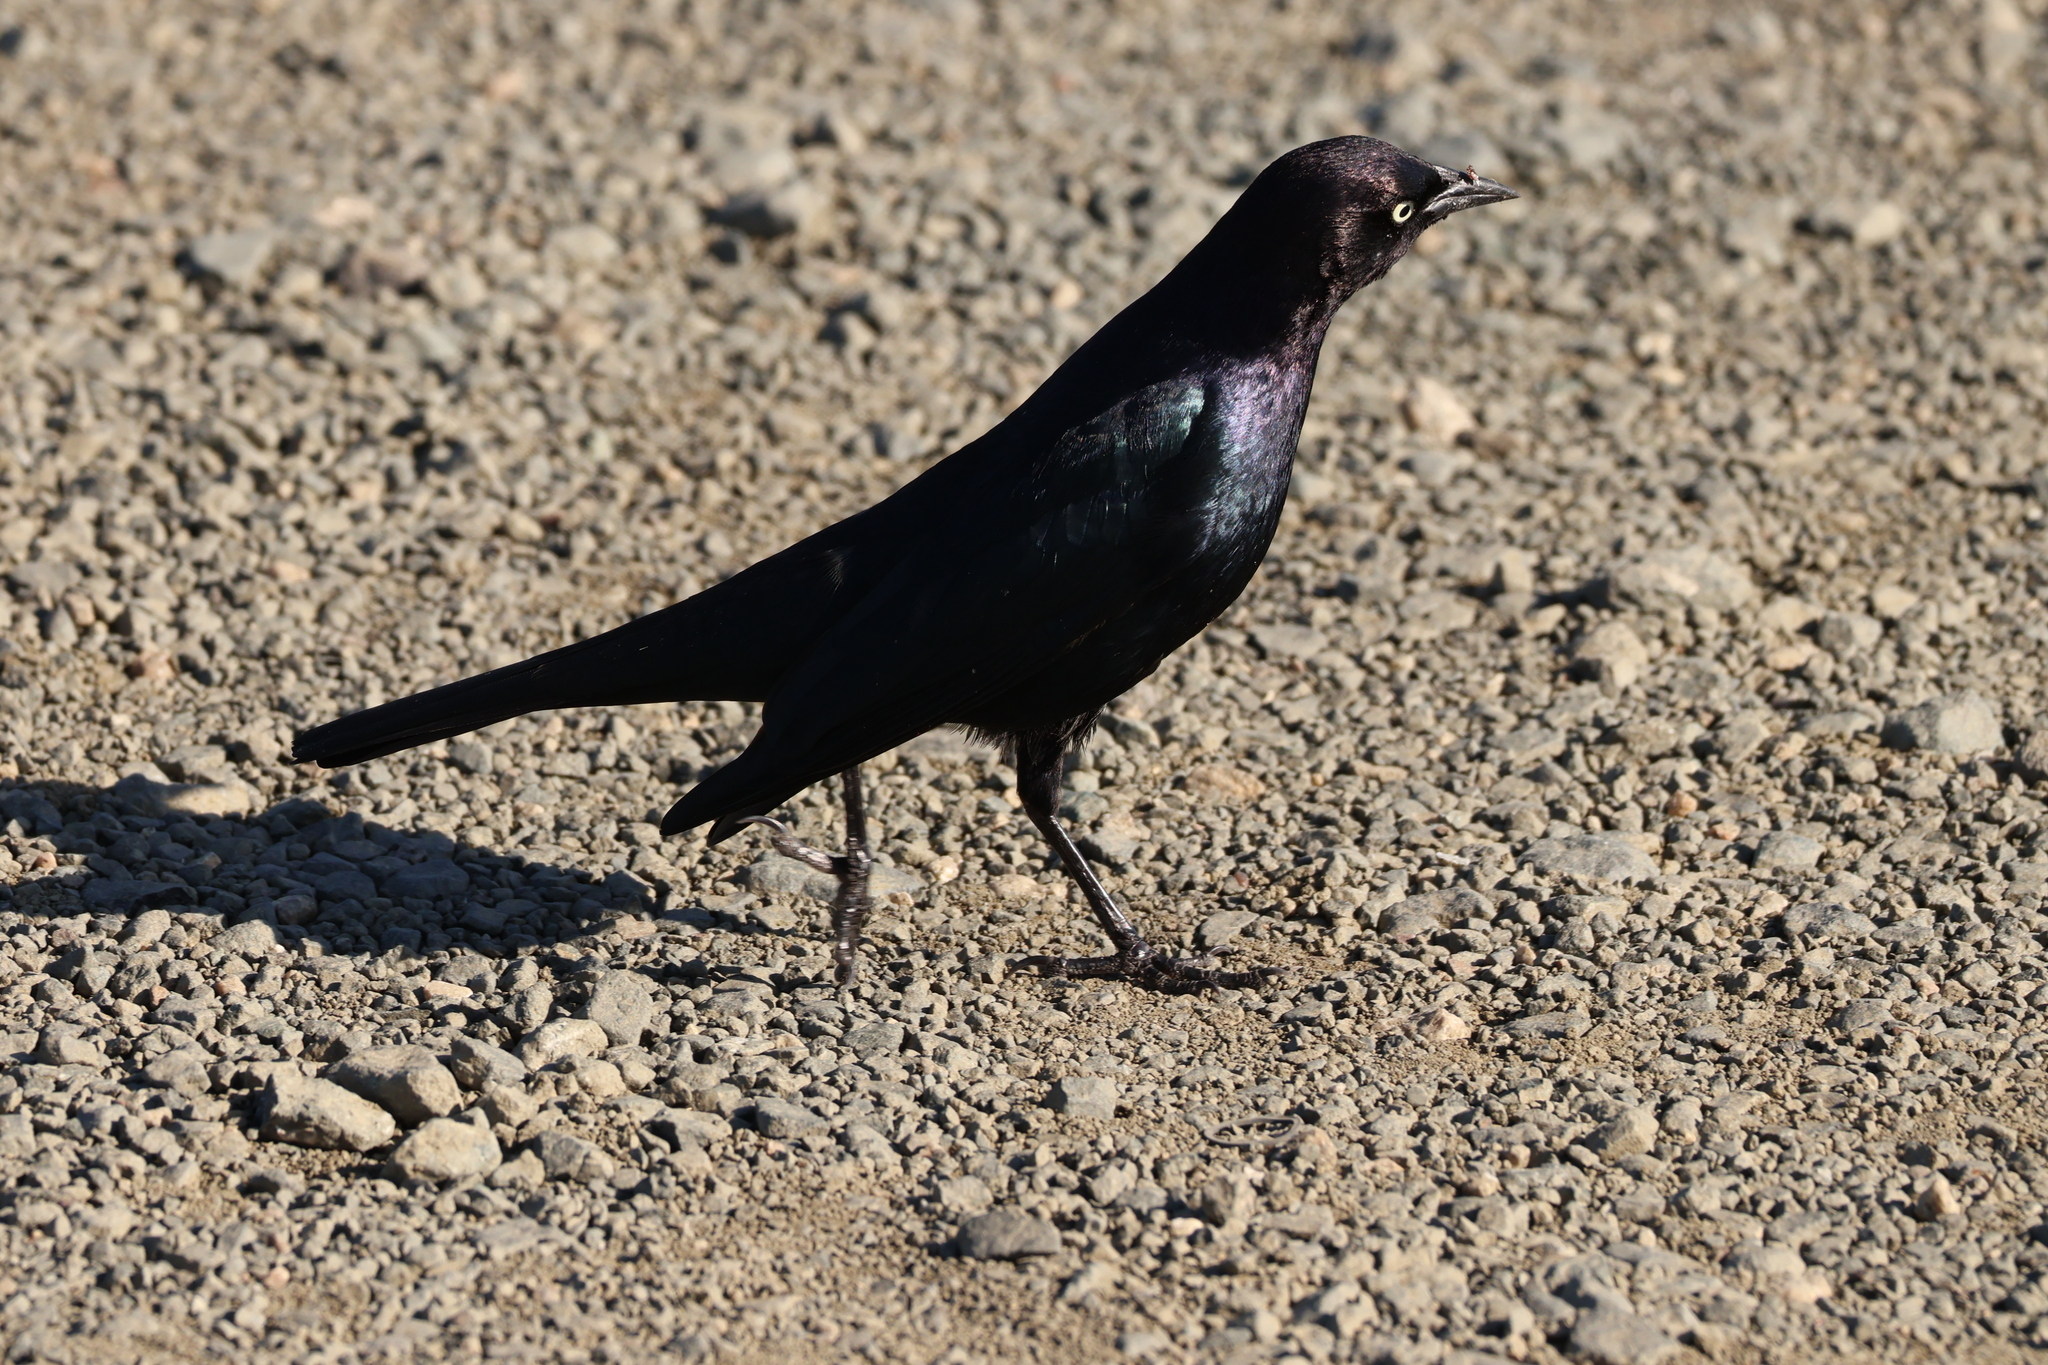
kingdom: Animalia
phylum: Chordata
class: Aves
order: Passeriformes
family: Icteridae
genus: Euphagus
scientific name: Euphagus cyanocephalus
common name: Brewer's blackbird
